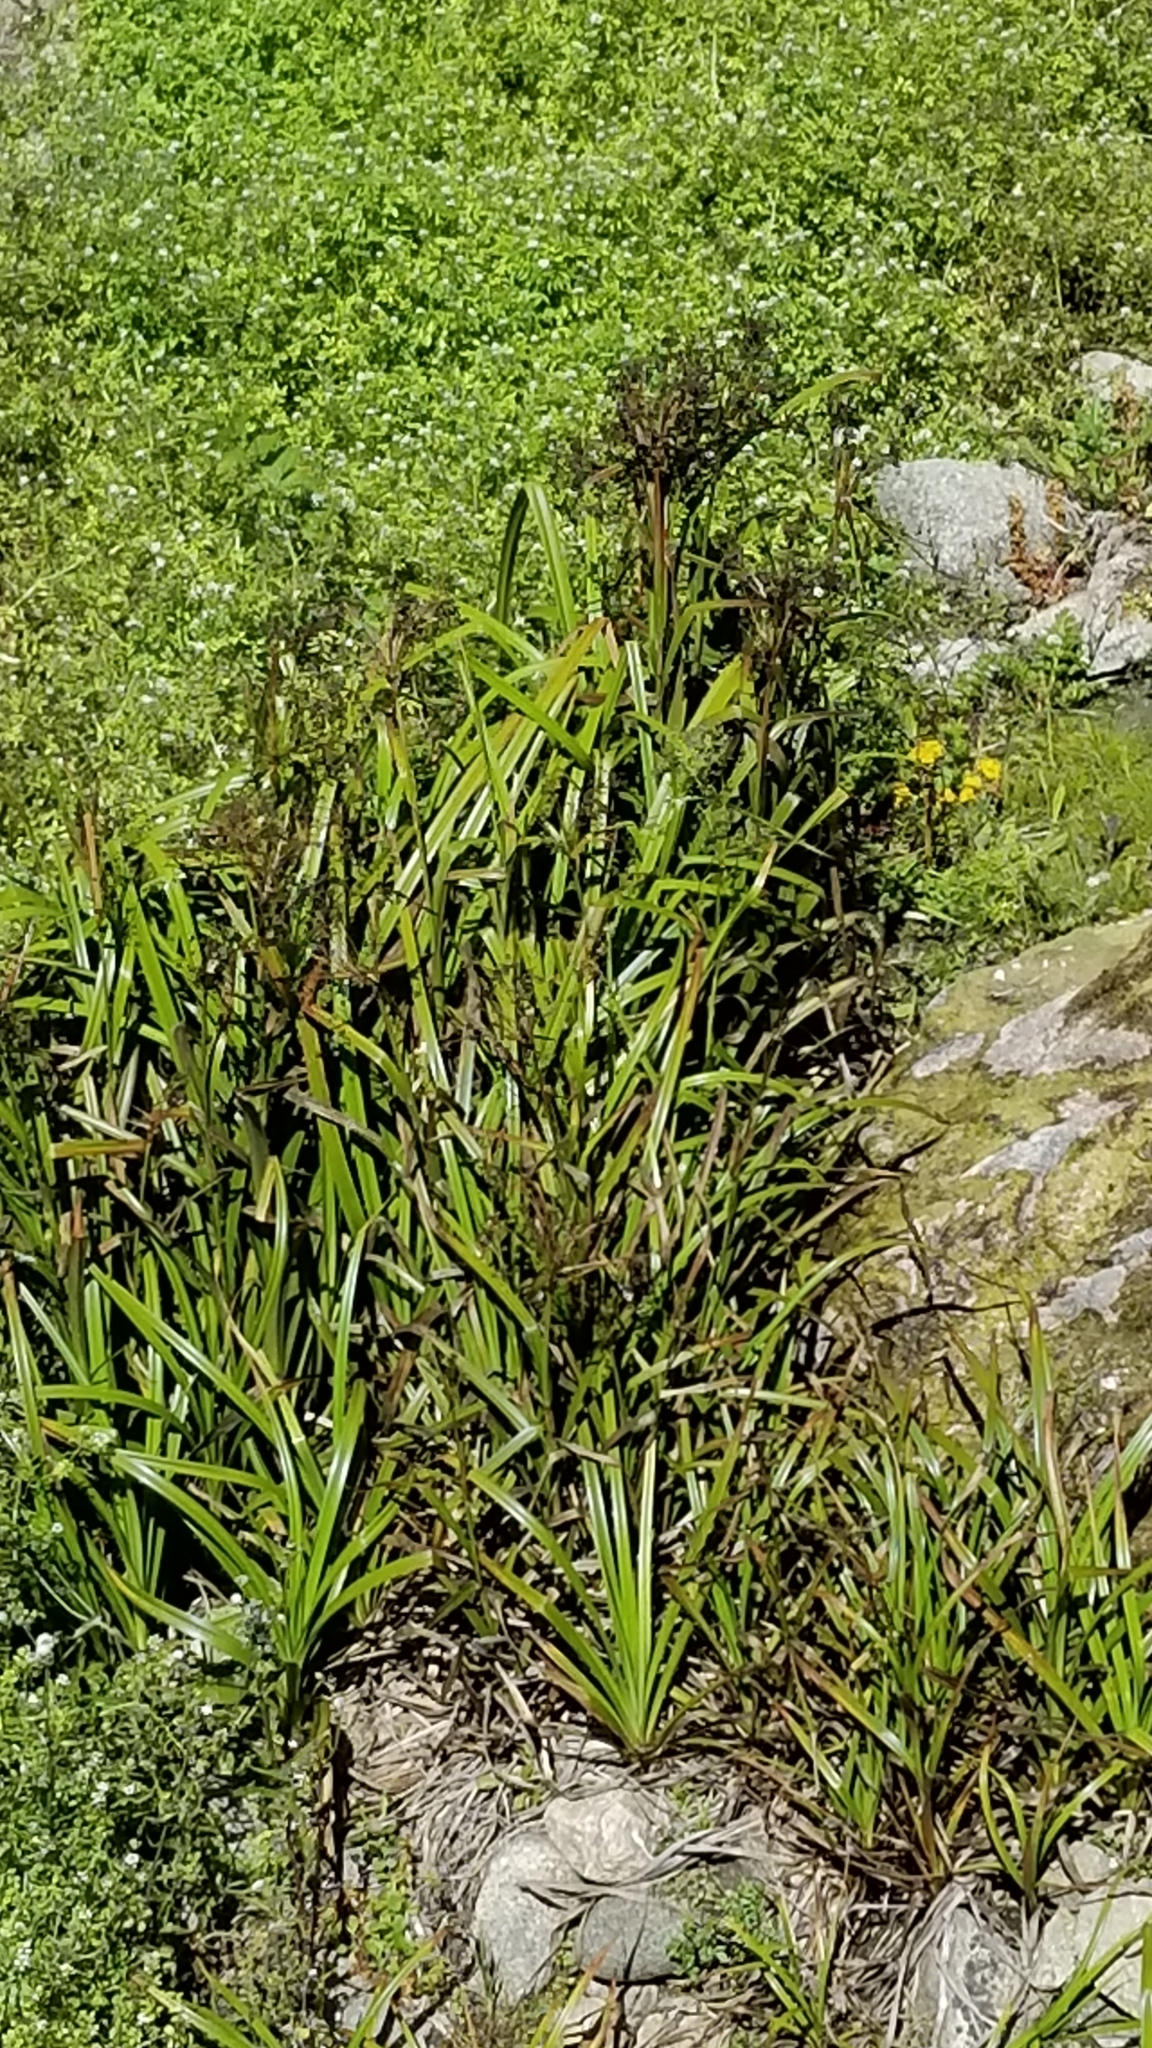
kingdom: Plantae
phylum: Tracheophyta
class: Liliopsida
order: Poales
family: Cyperaceae
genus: Scirpus
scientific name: Scirpus microcarpus
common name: Panicled bulrush
